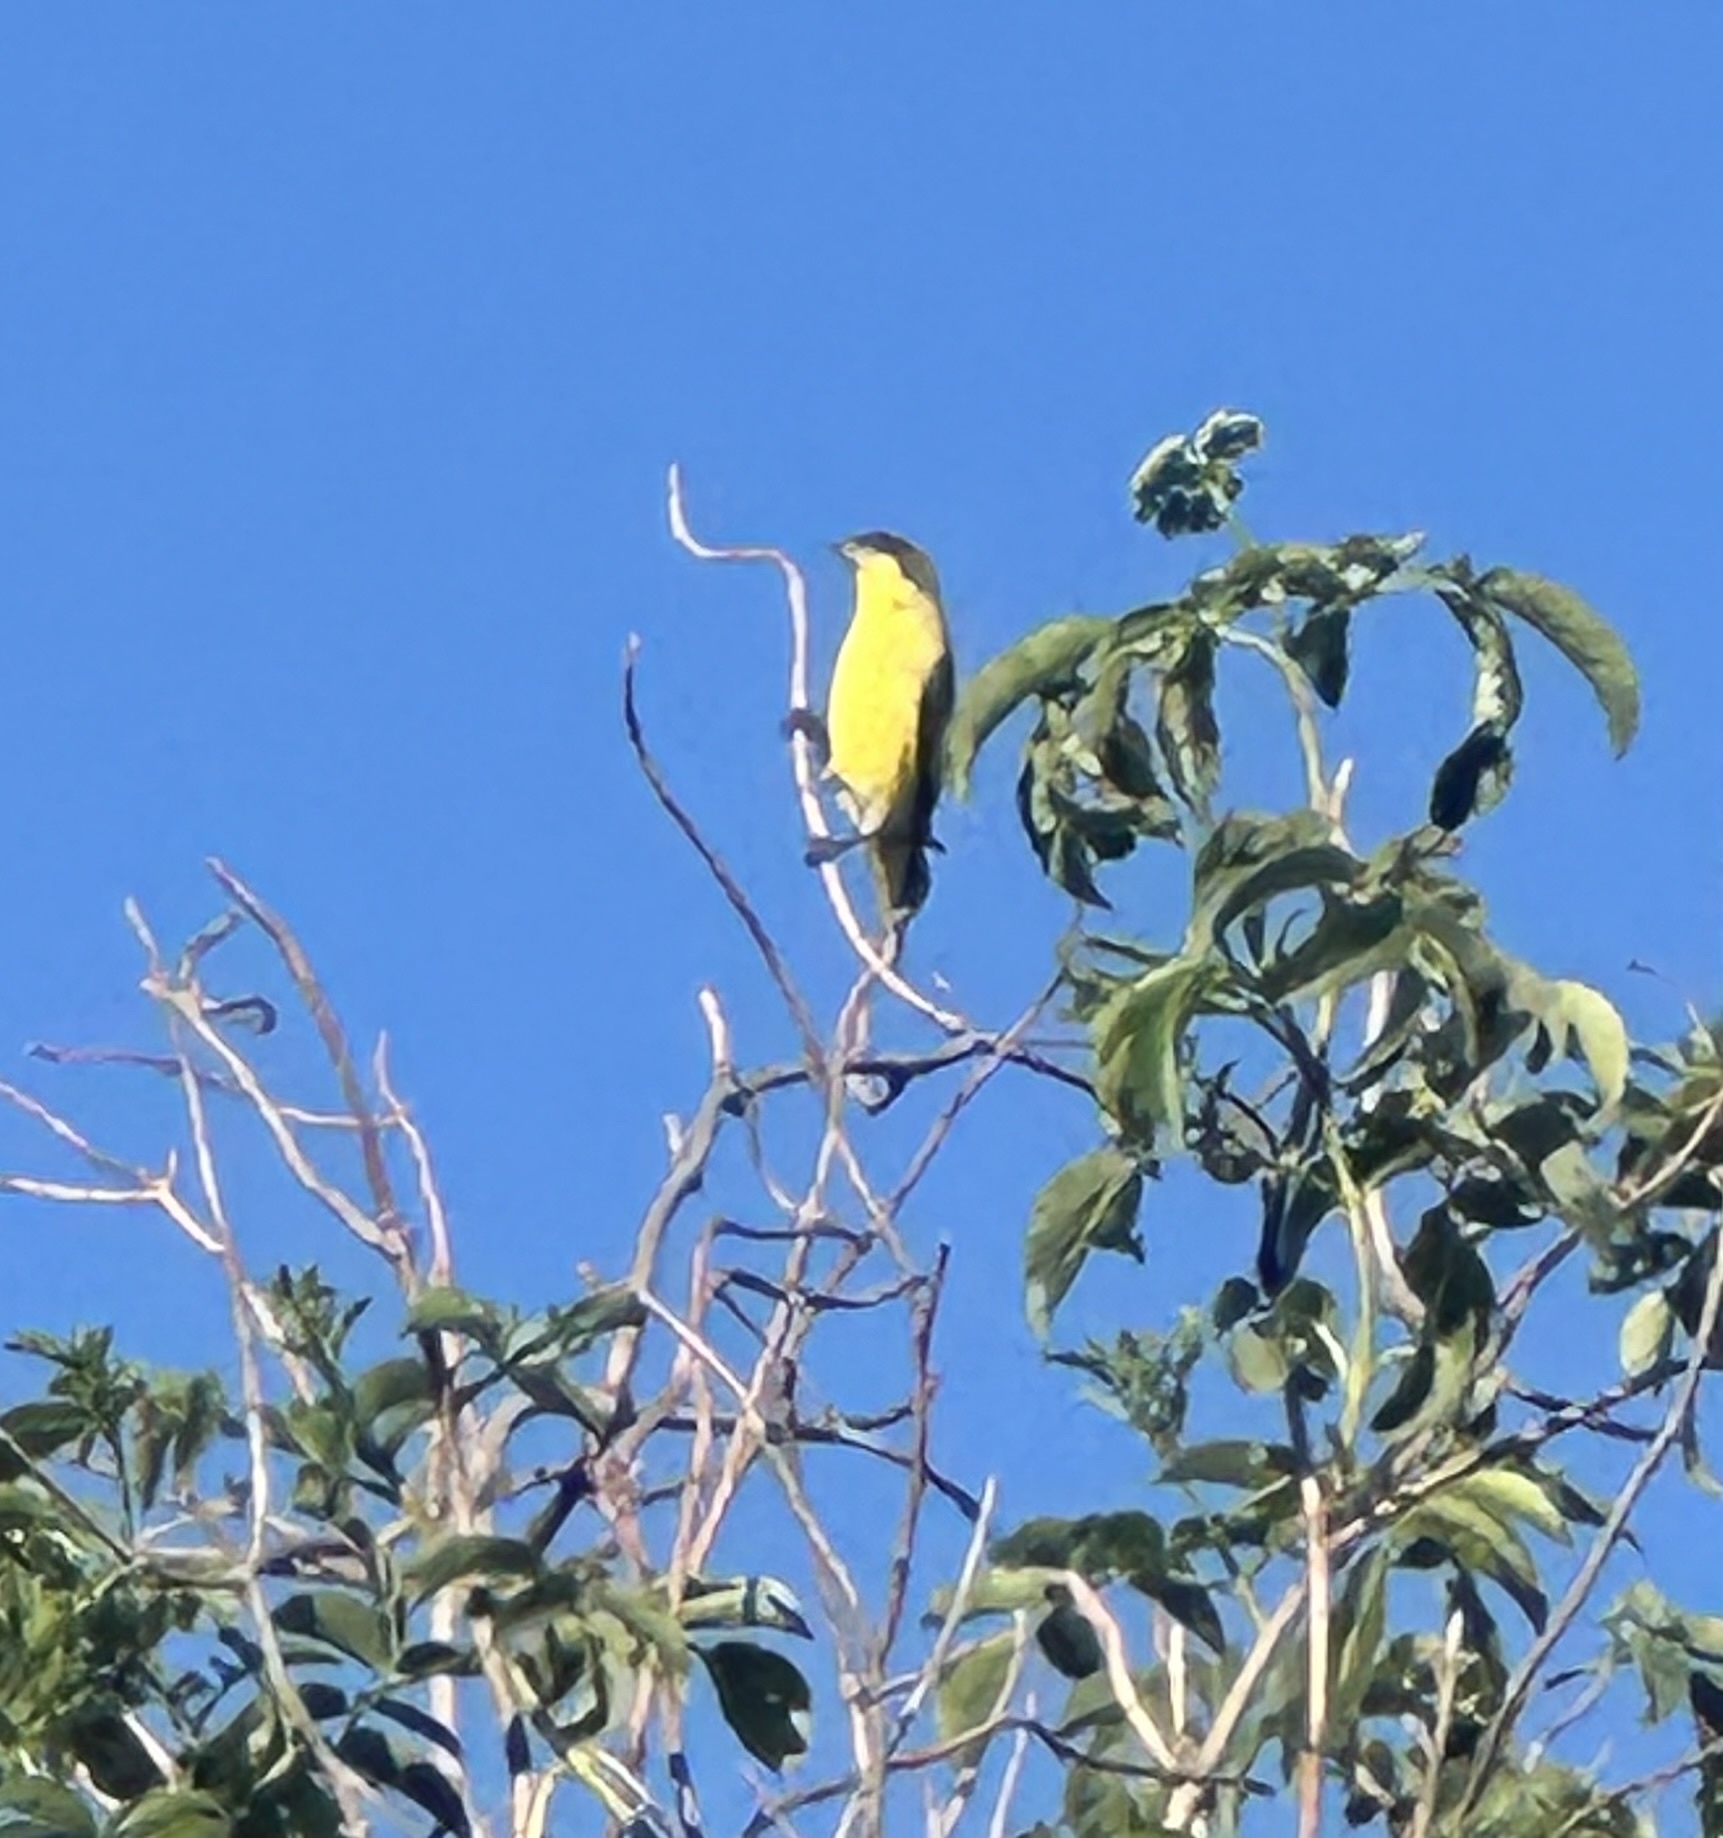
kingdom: Animalia
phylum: Chordata
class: Aves
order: Passeriformes
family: Fringillidae
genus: Spinus
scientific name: Spinus psaltria
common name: Lesser goldfinch
